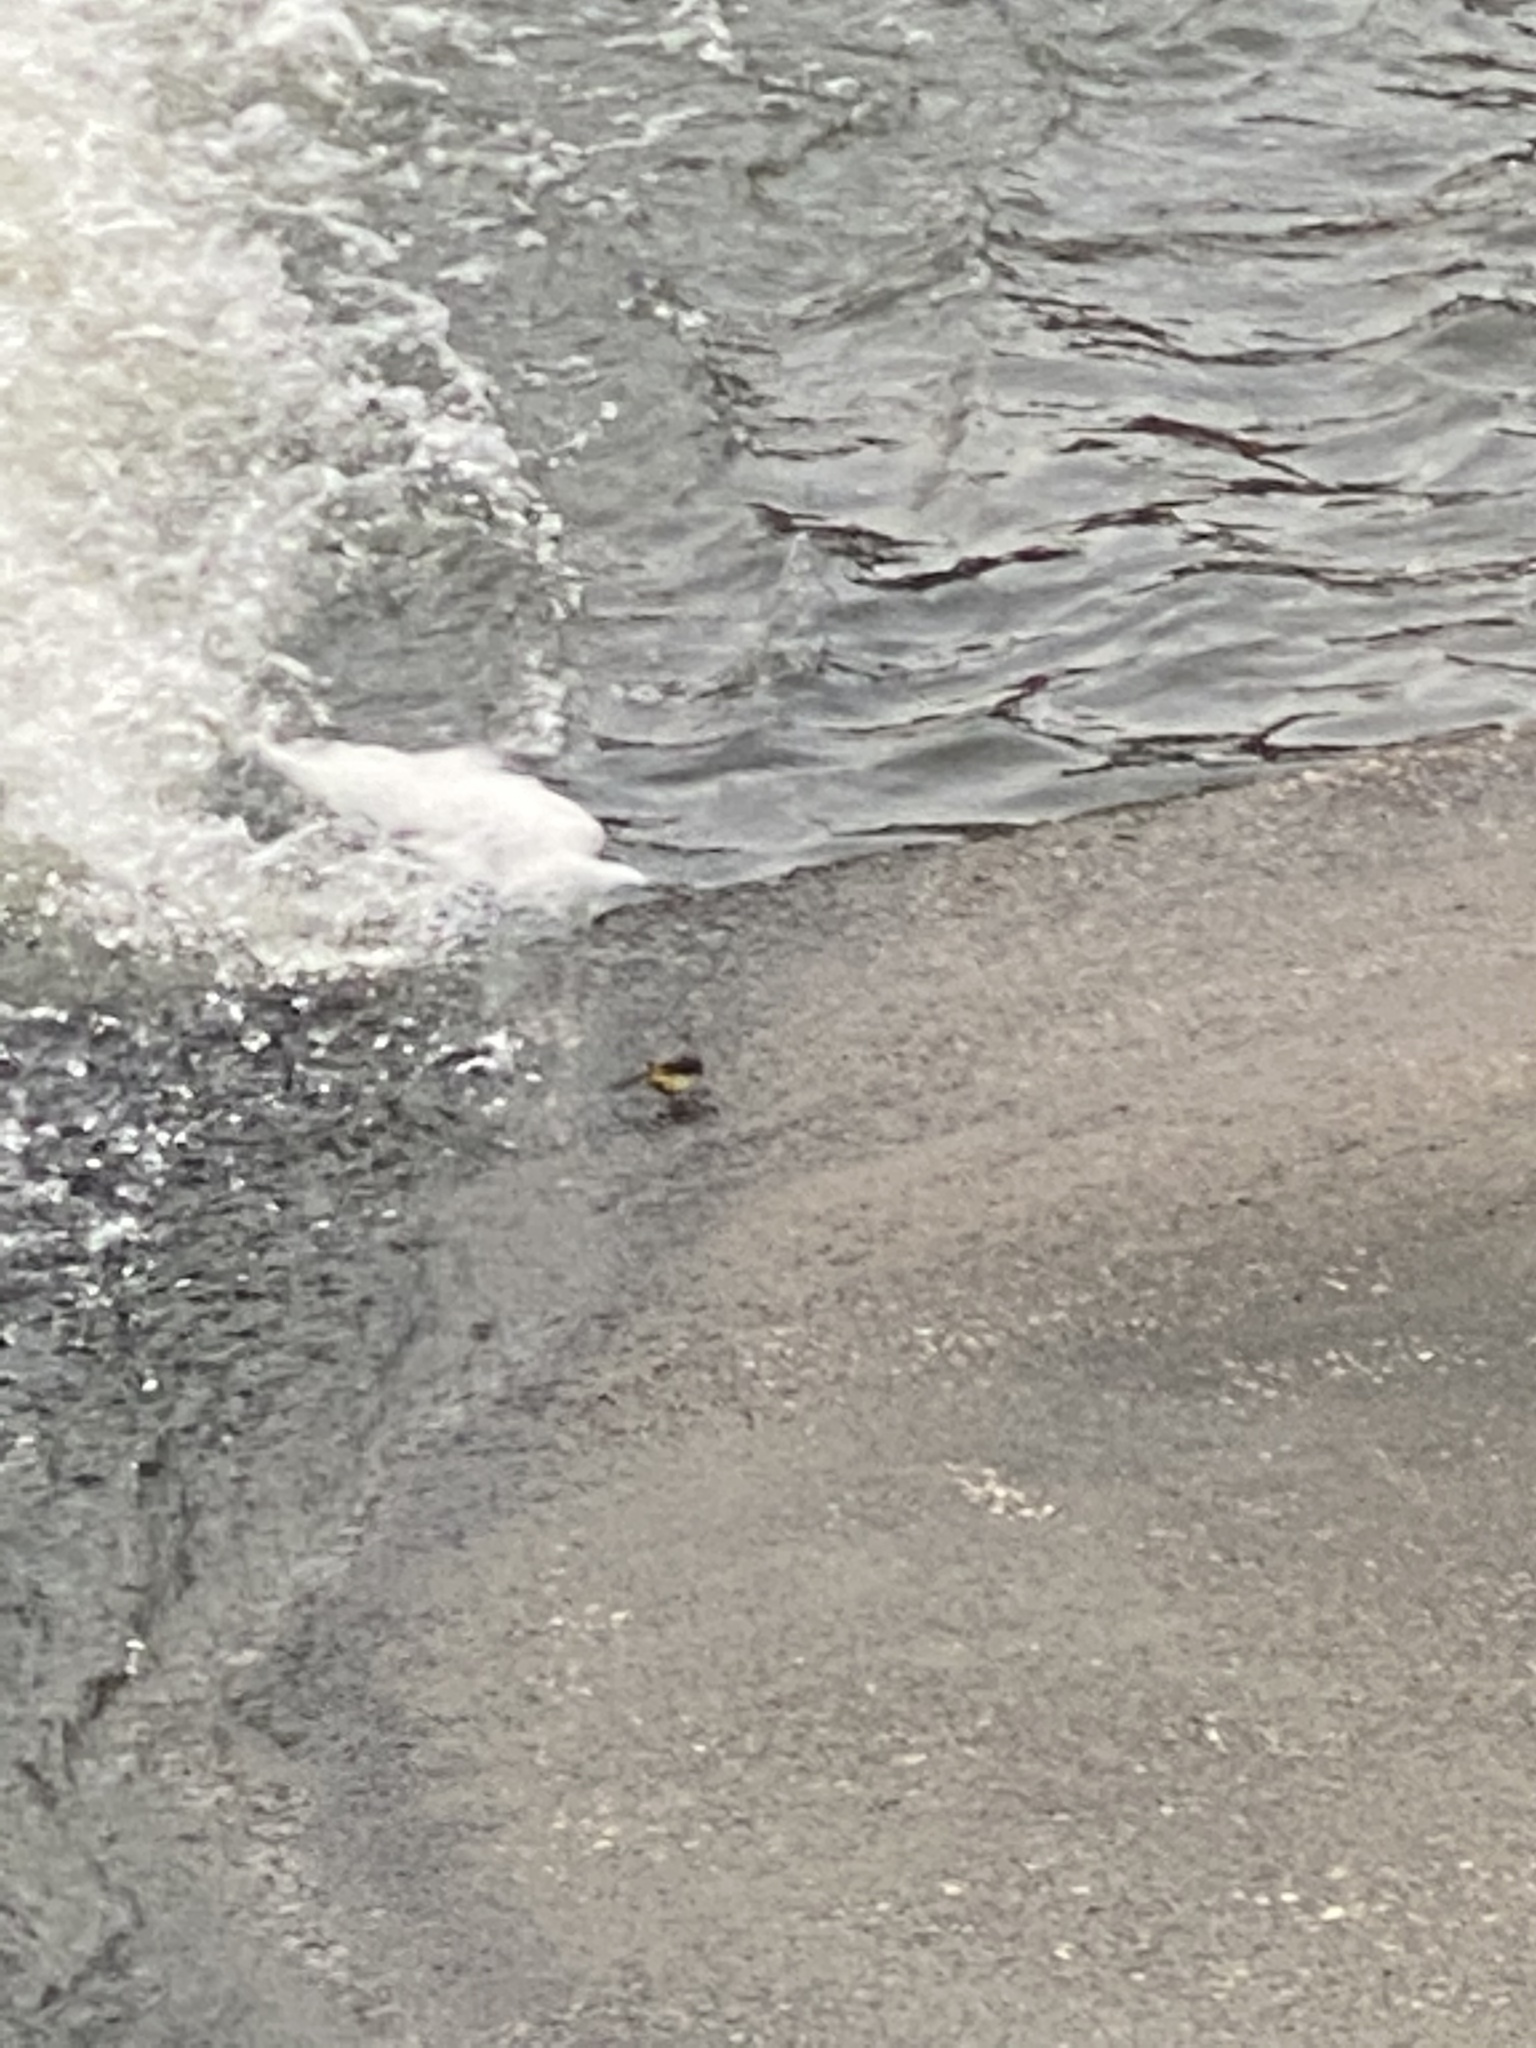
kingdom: Animalia
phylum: Chordata
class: Aves
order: Passeriformes
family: Motacillidae
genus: Motacilla
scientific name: Motacilla cinerea
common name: Grey wagtail
